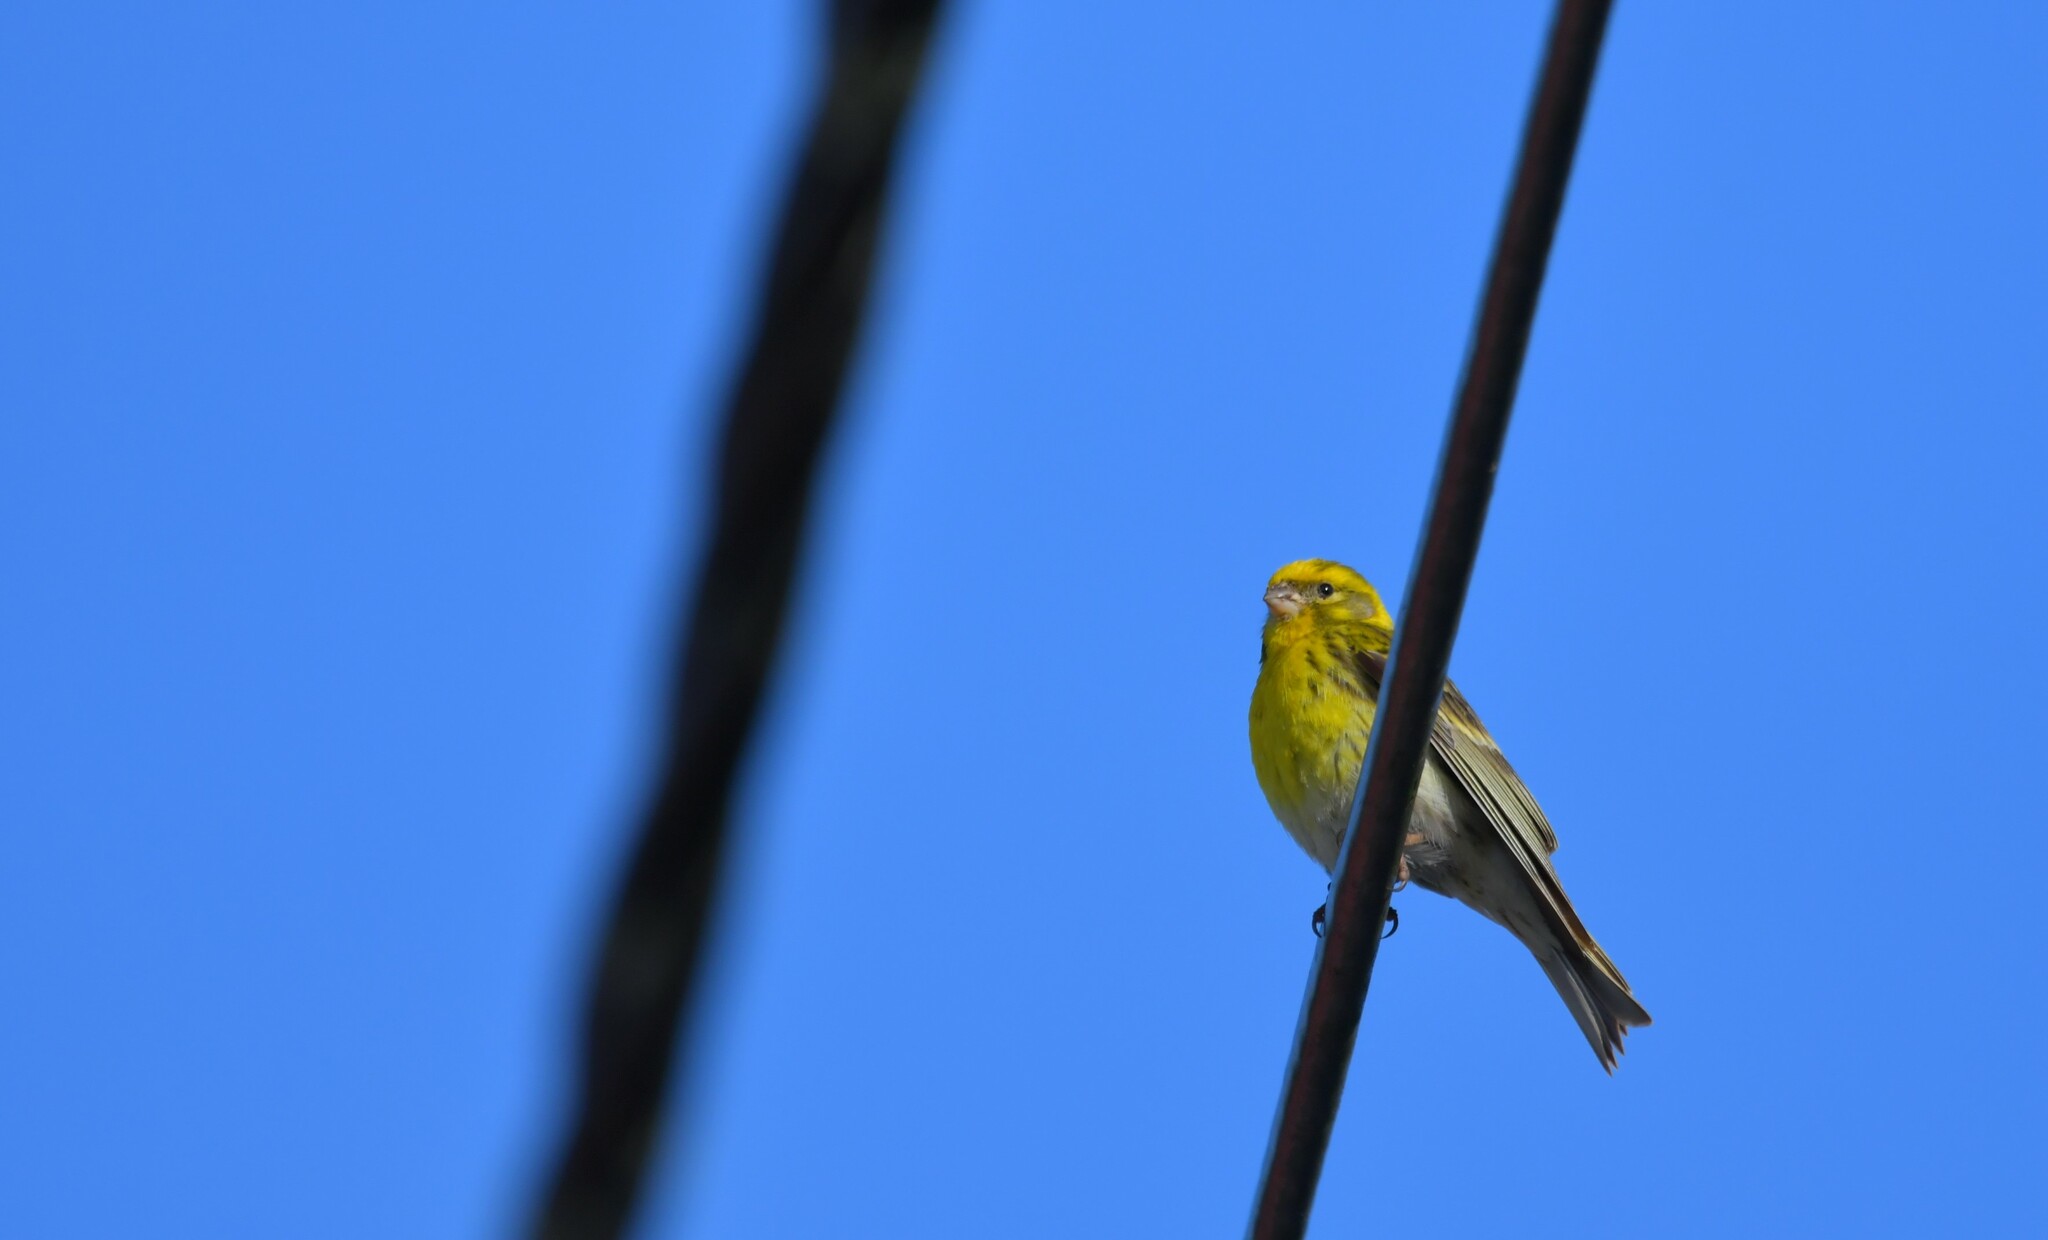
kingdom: Animalia
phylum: Chordata
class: Aves
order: Passeriformes
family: Fringillidae
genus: Serinus
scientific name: Serinus serinus
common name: European serin
